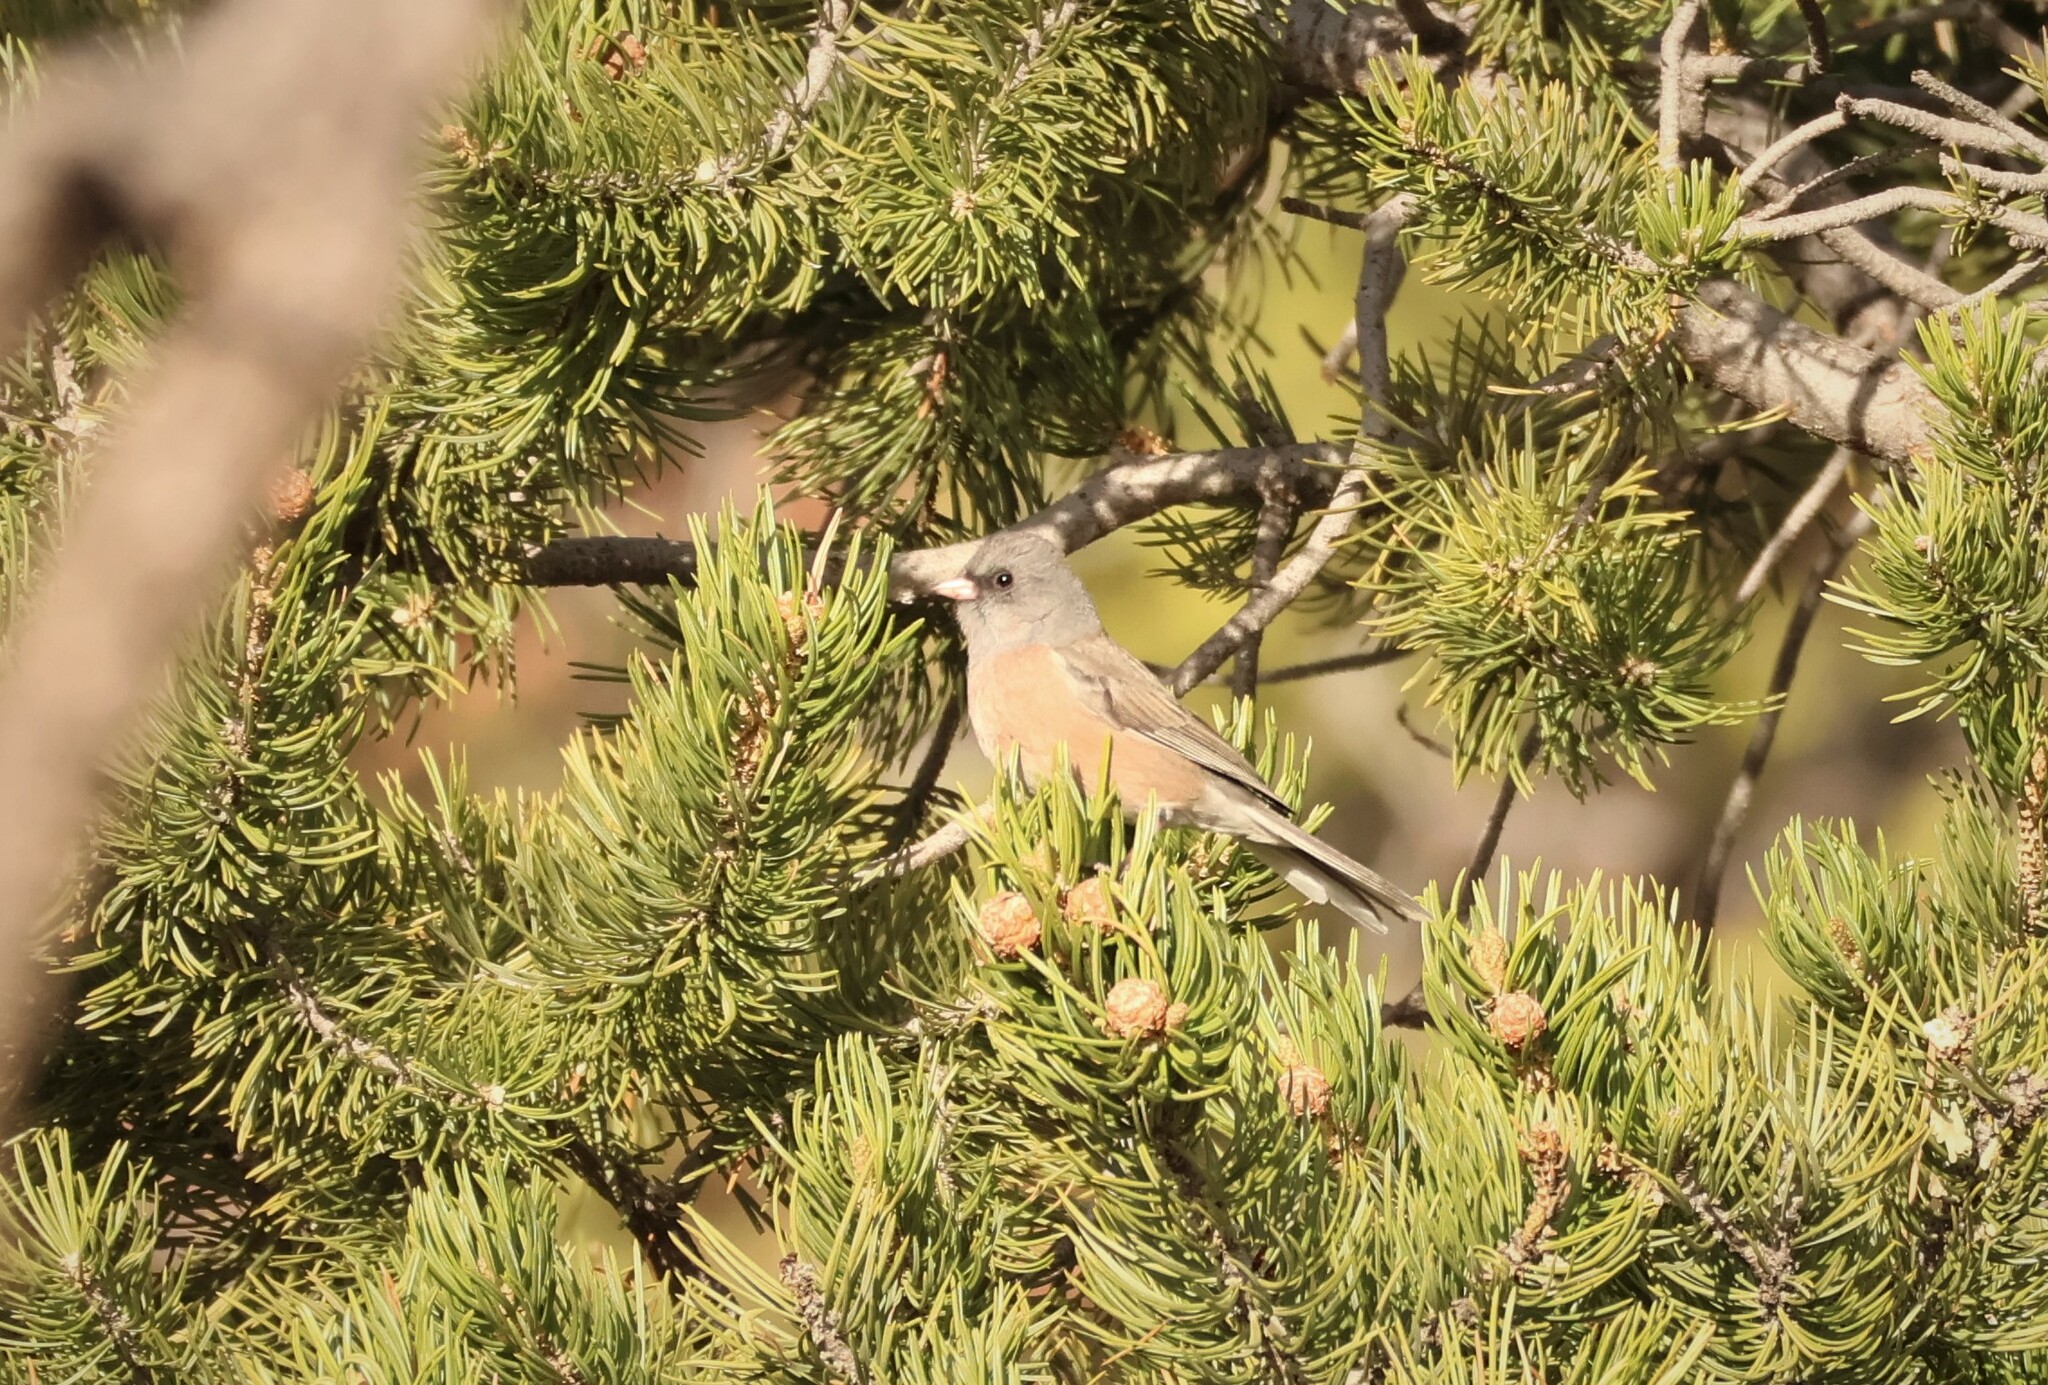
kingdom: Animalia
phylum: Chordata
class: Aves
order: Passeriformes
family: Passerellidae
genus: Junco
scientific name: Junco hyemalis
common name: Dark-eyed junco
